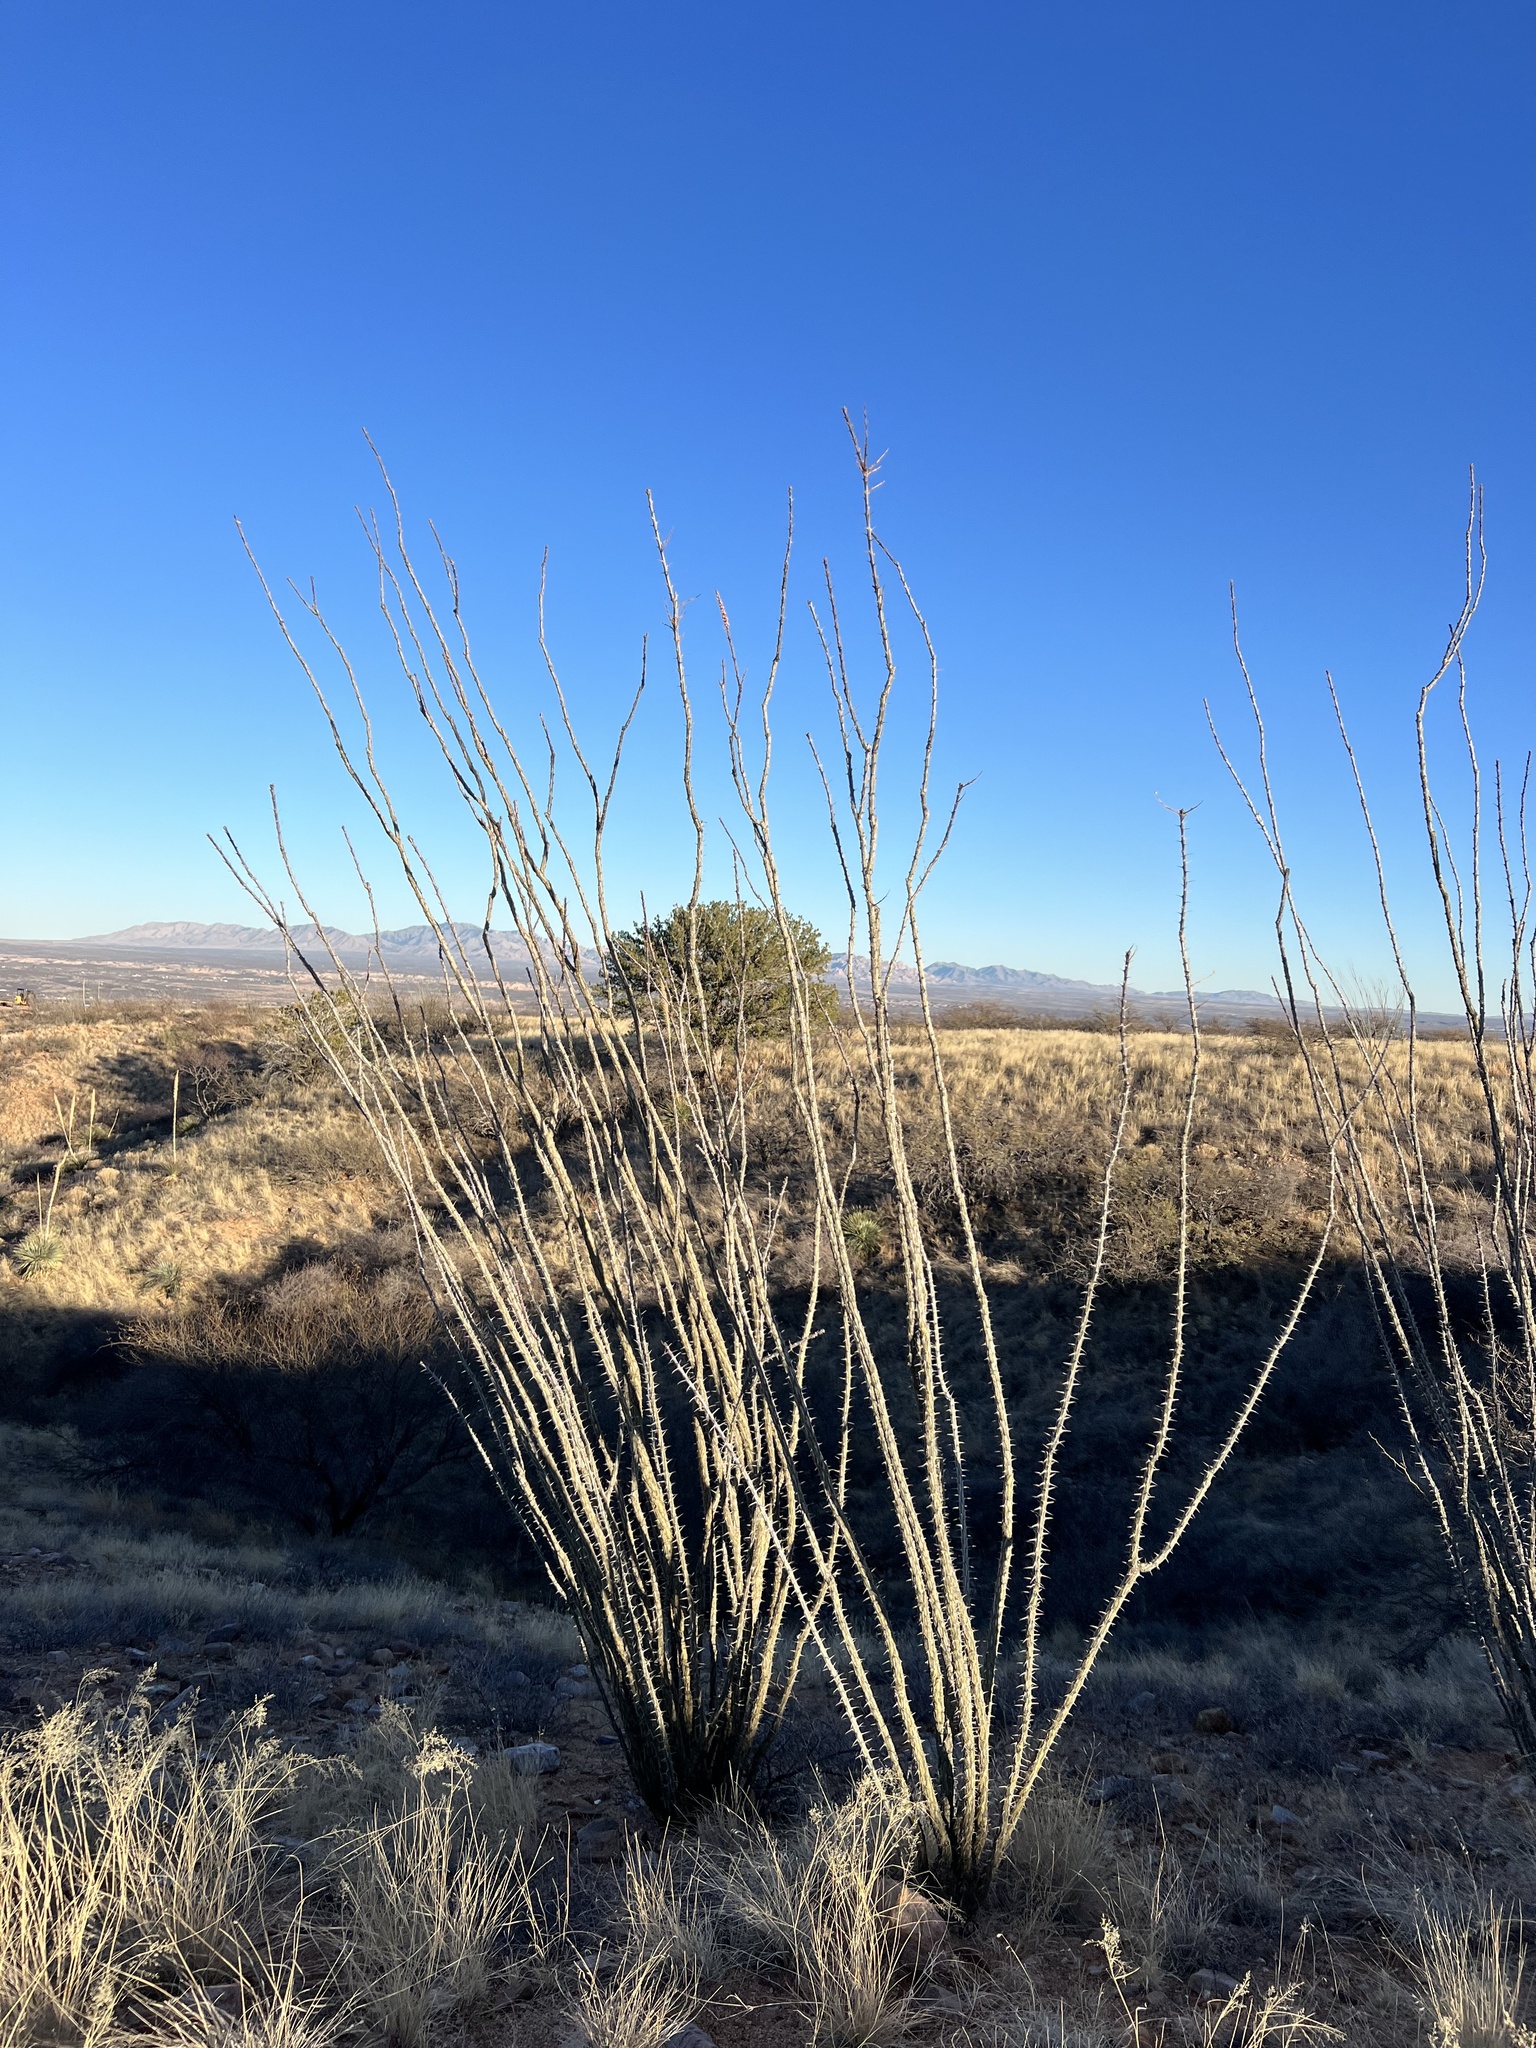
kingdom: Plantae
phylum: Tracheophyta
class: Magnoliopsida
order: Ericales
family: Fouquieriaceae
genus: Fouquieria
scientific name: Fouquieria splendens
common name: Vine-cactus
